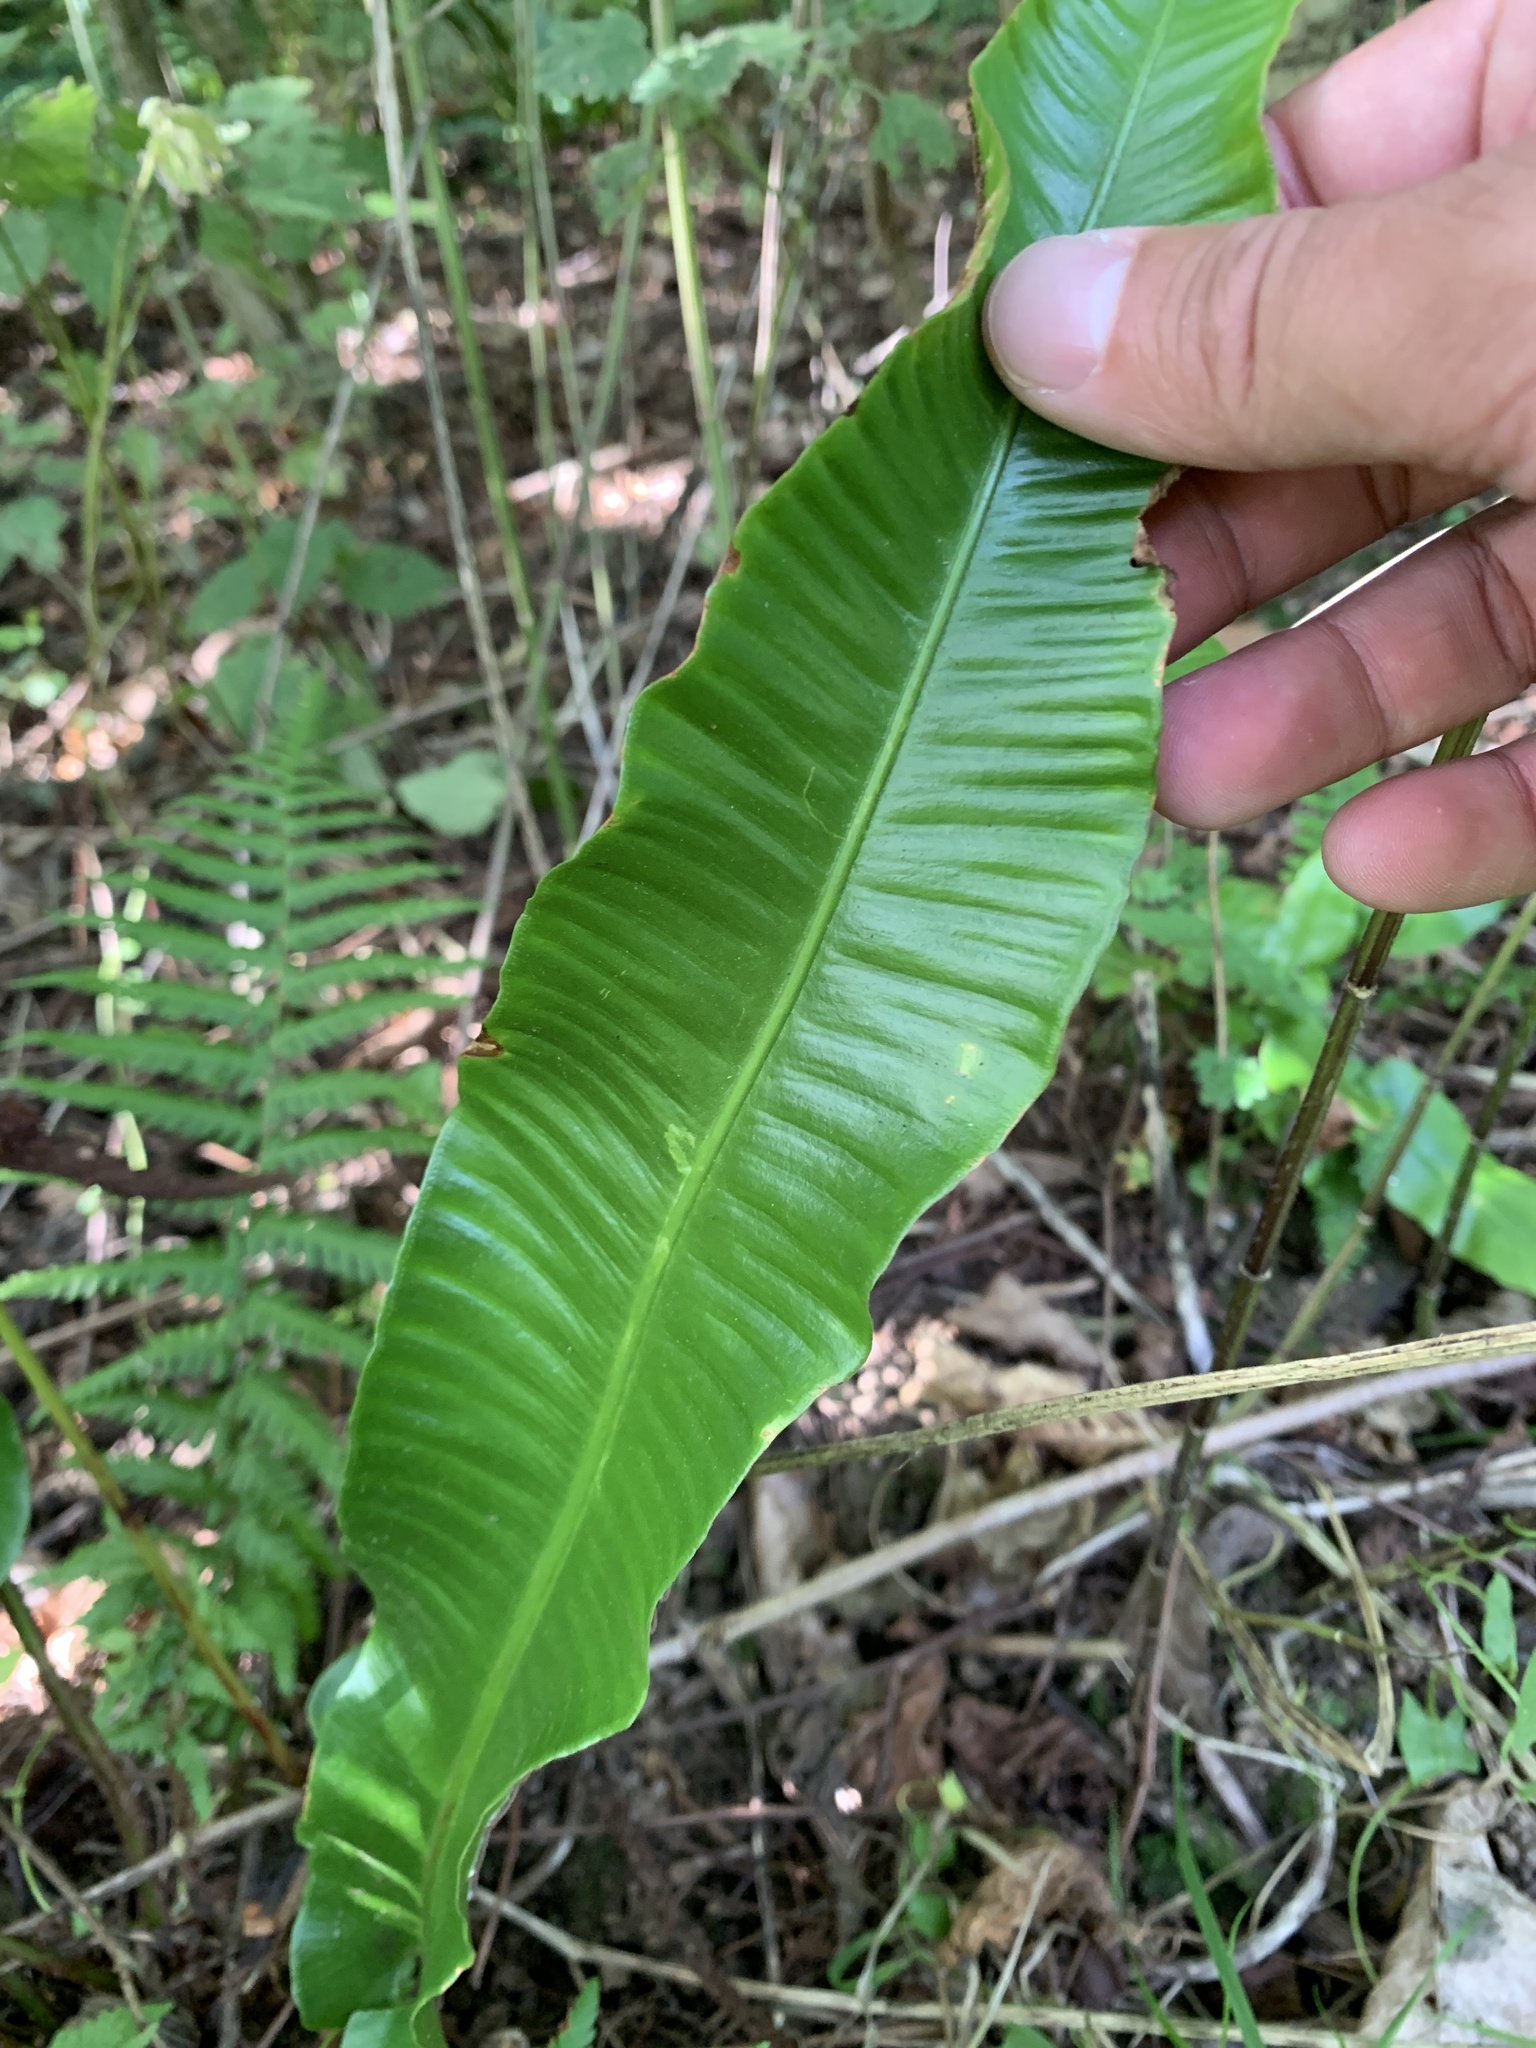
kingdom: Plantae
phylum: Tracheophyta
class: Polypodiopsida
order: Polypodiales
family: Aspleniaceae
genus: Asplenium
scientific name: Asplenium scolopendrium
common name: Hart's-tongue fern
